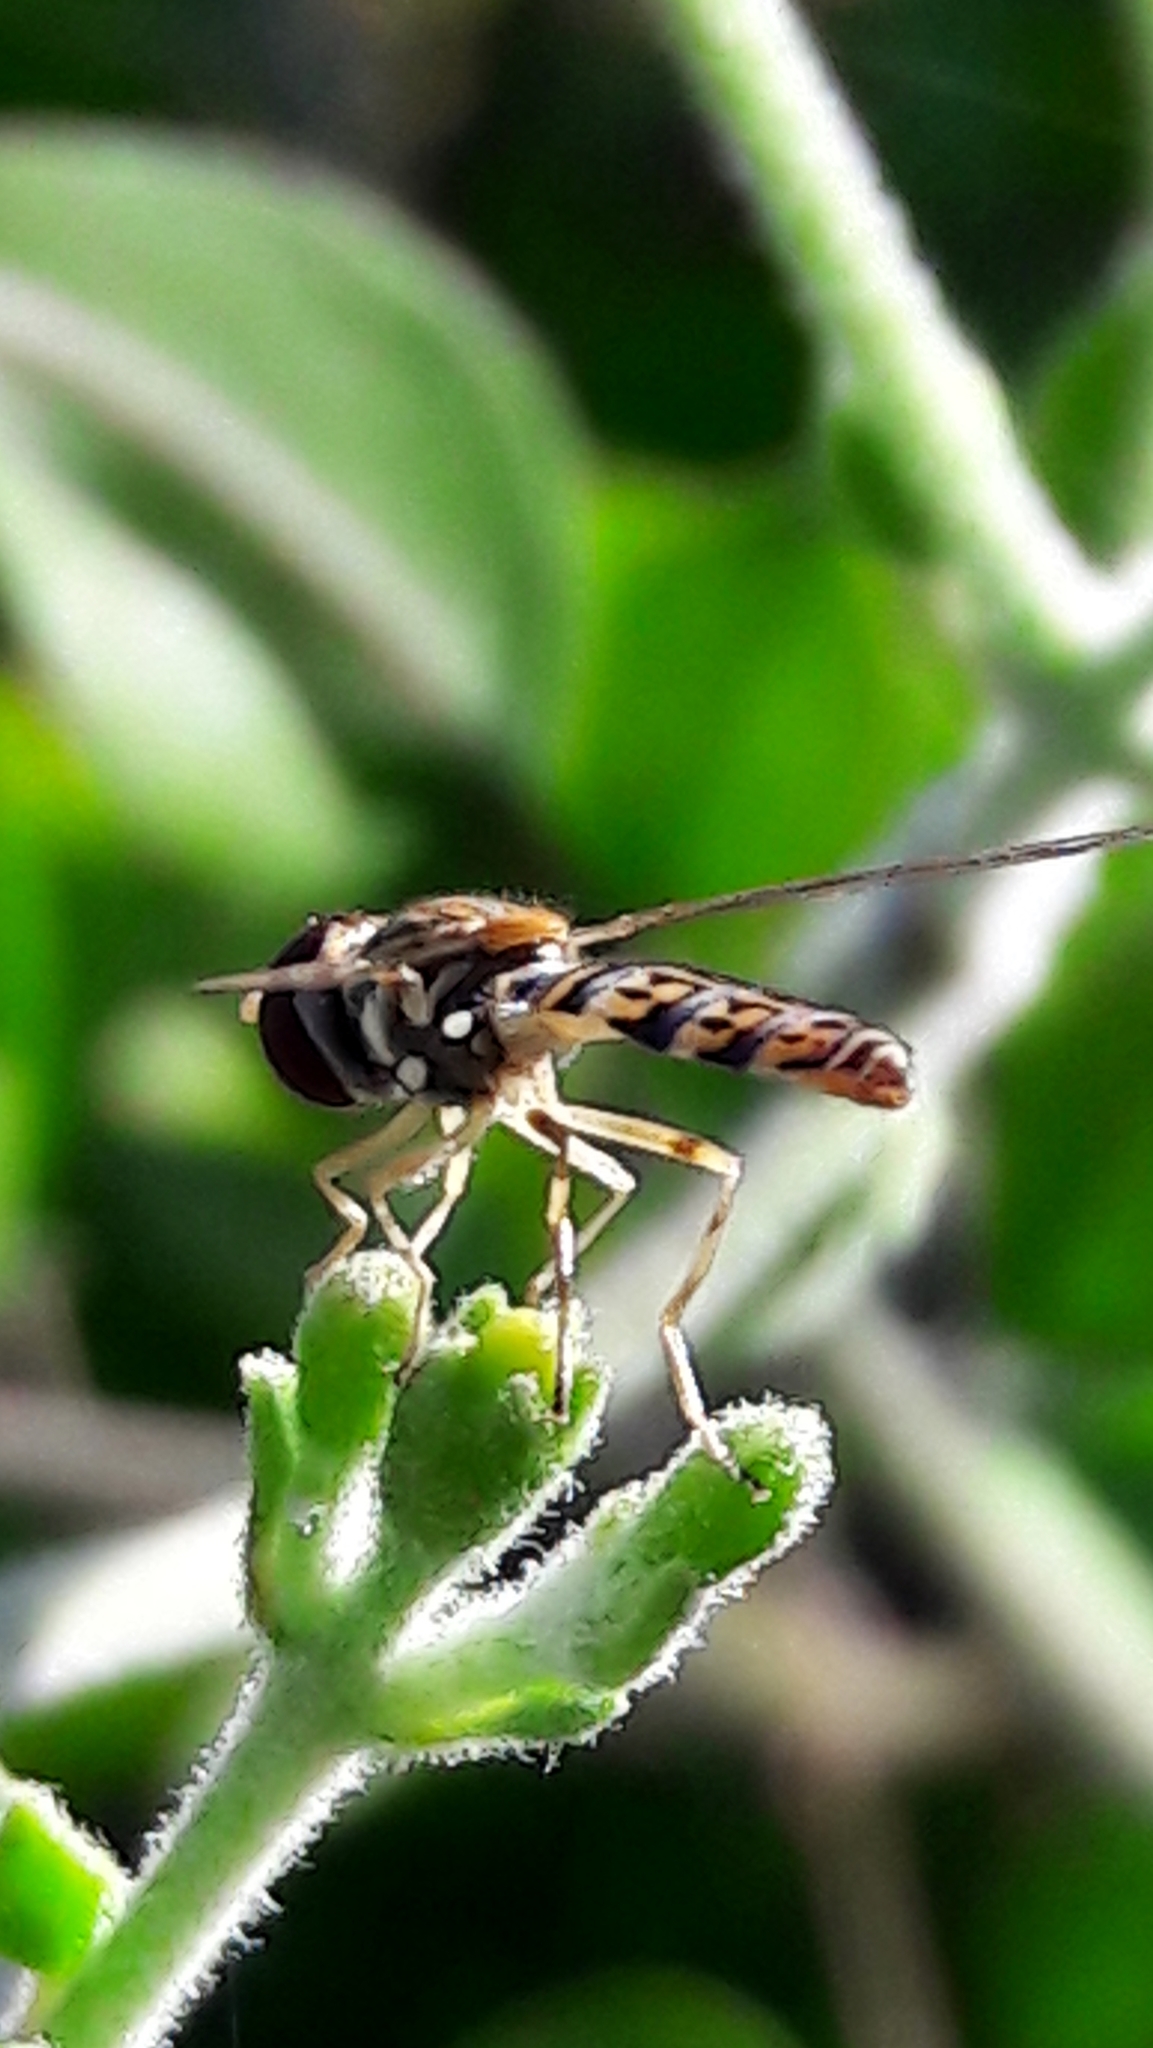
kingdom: Animalia
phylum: Arthropoda
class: Insecta
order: Diptera
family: Syrphidae
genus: Toxomerus
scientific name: Toxomerus
